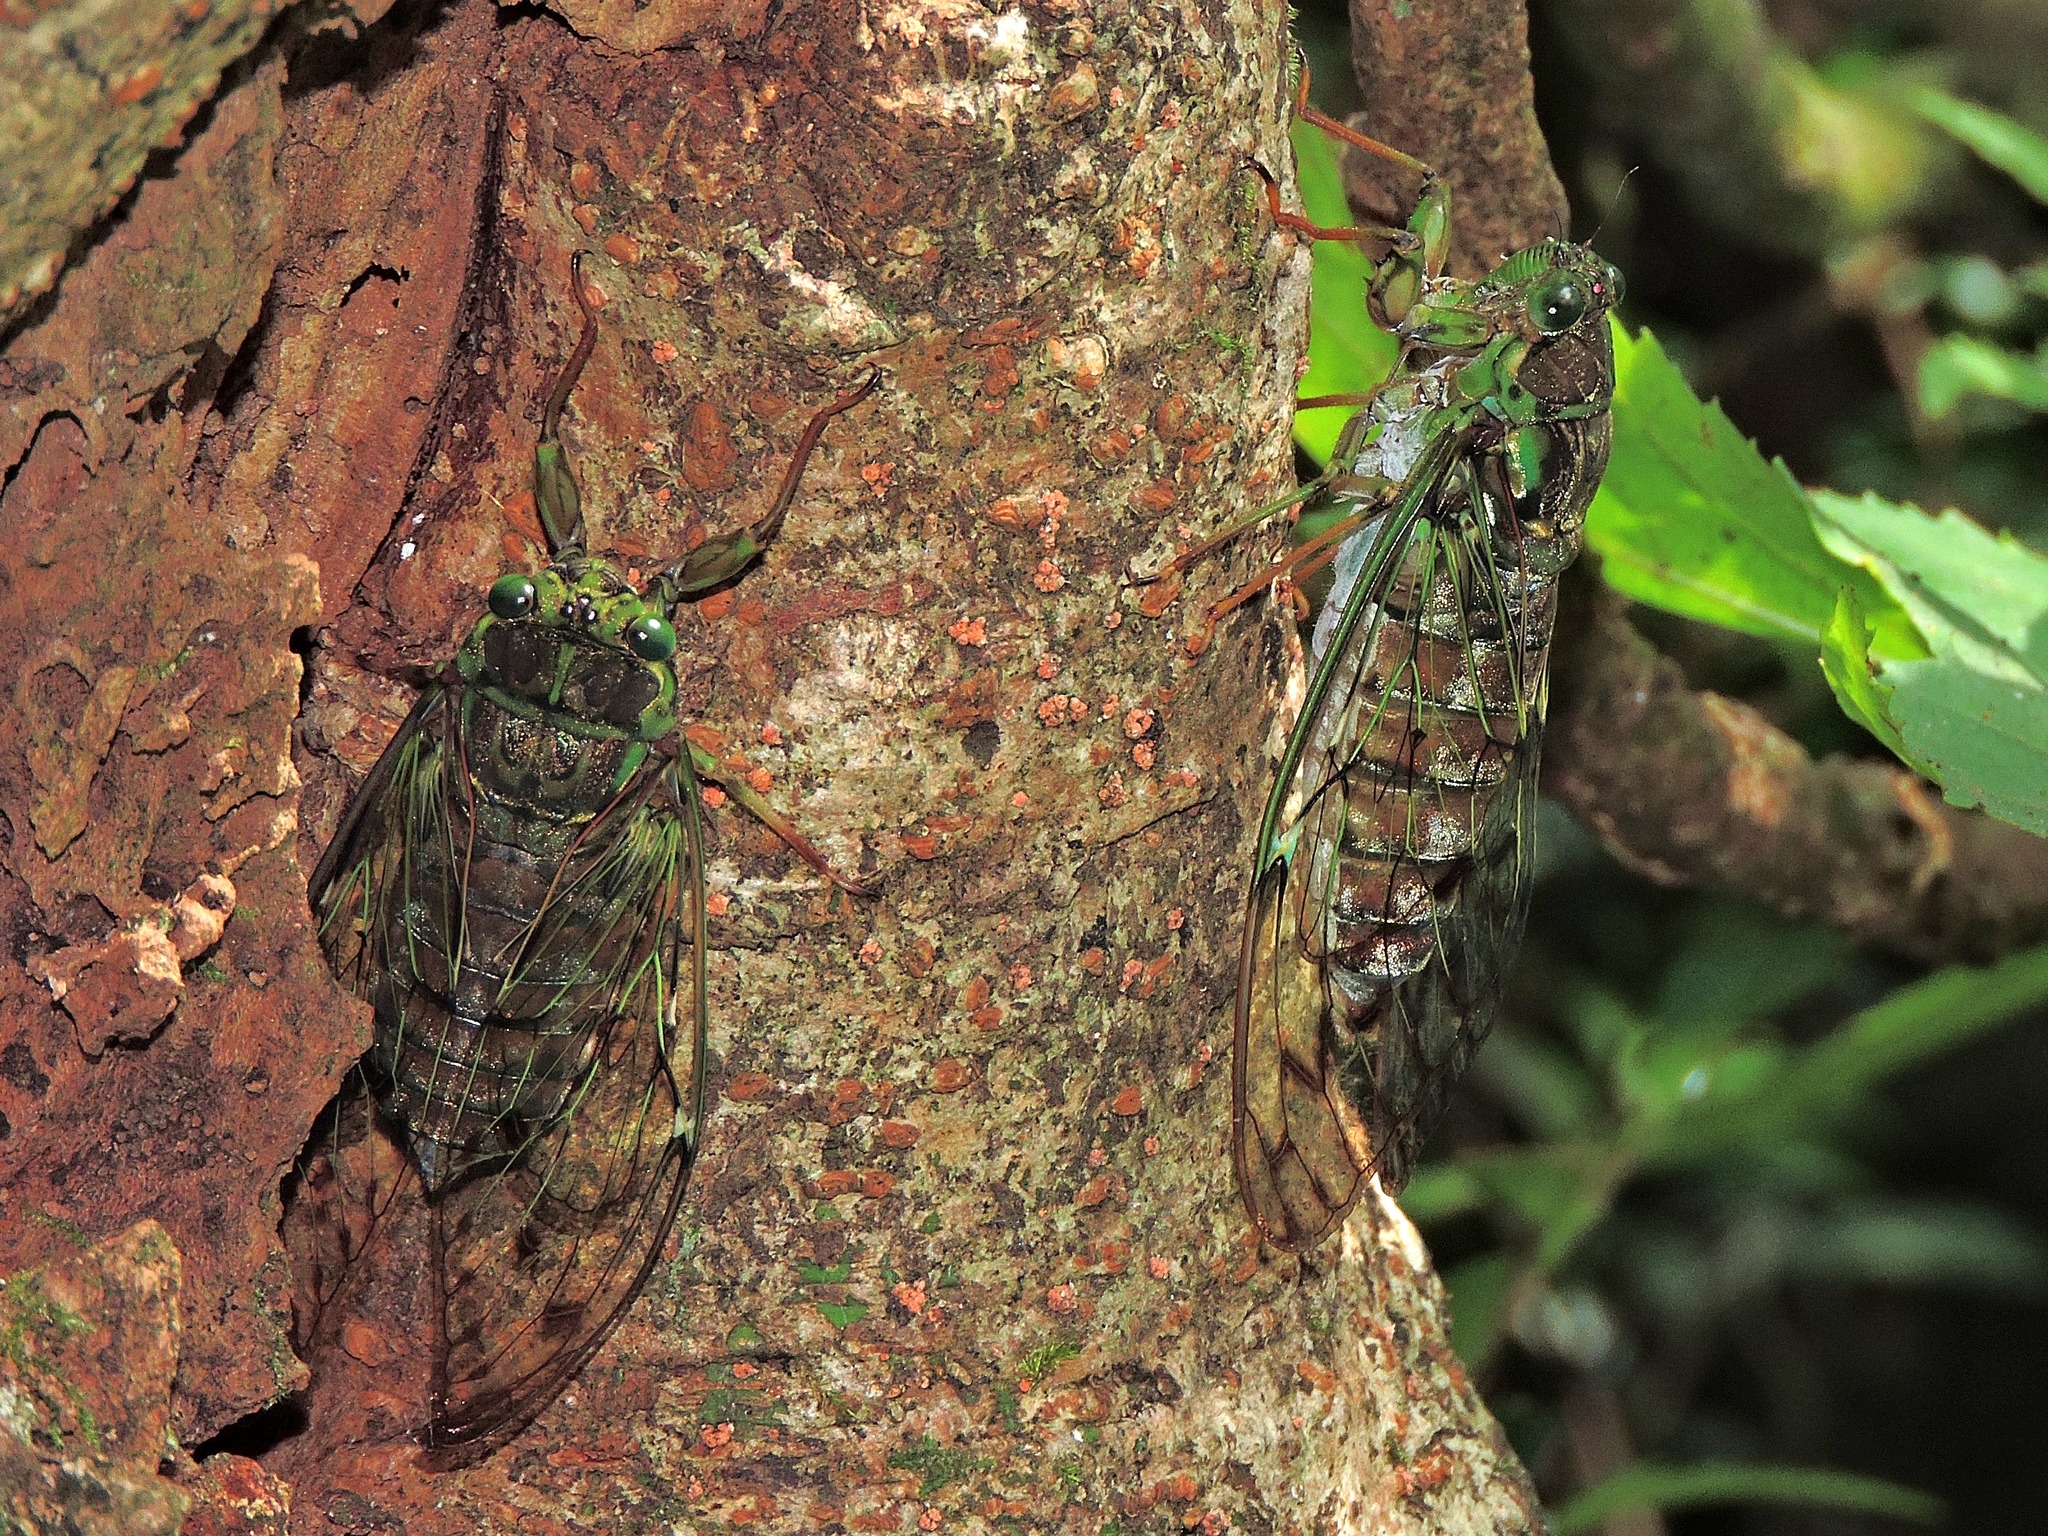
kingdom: Animalia
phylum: Arthropoda
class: Insecta
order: Hemiptera
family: Cicadidae
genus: Tanna
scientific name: Tanna sozanensis
